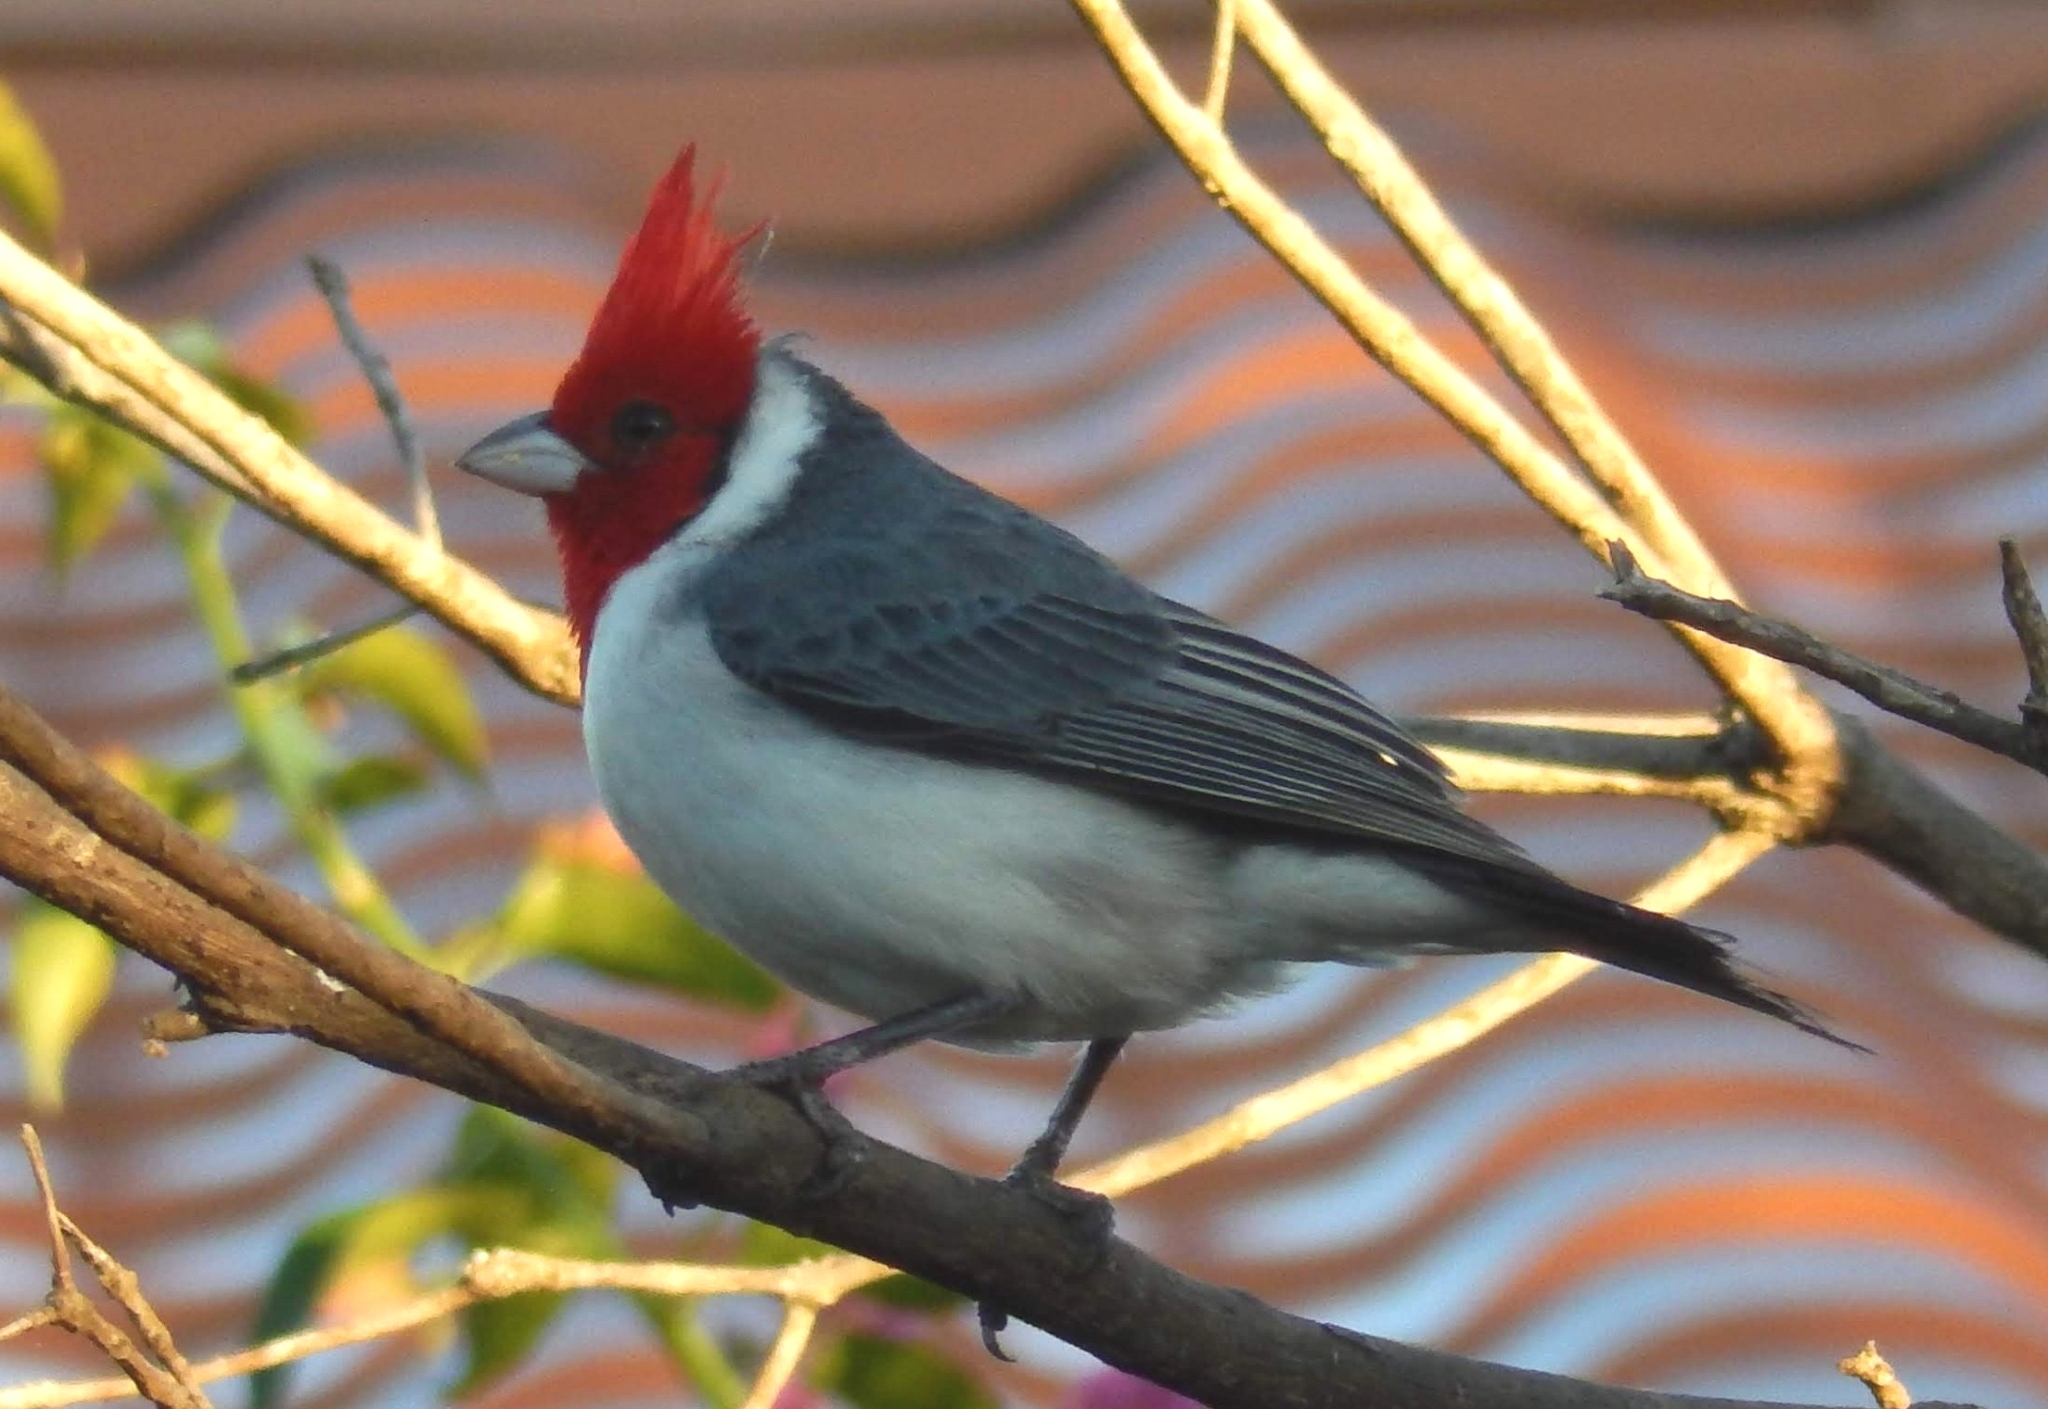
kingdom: Animalia
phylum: Chordata
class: Aves
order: Passeriformes
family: Thraupidae
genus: Paroaria
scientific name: Paroaria coronata
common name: Red-crested cardinal
